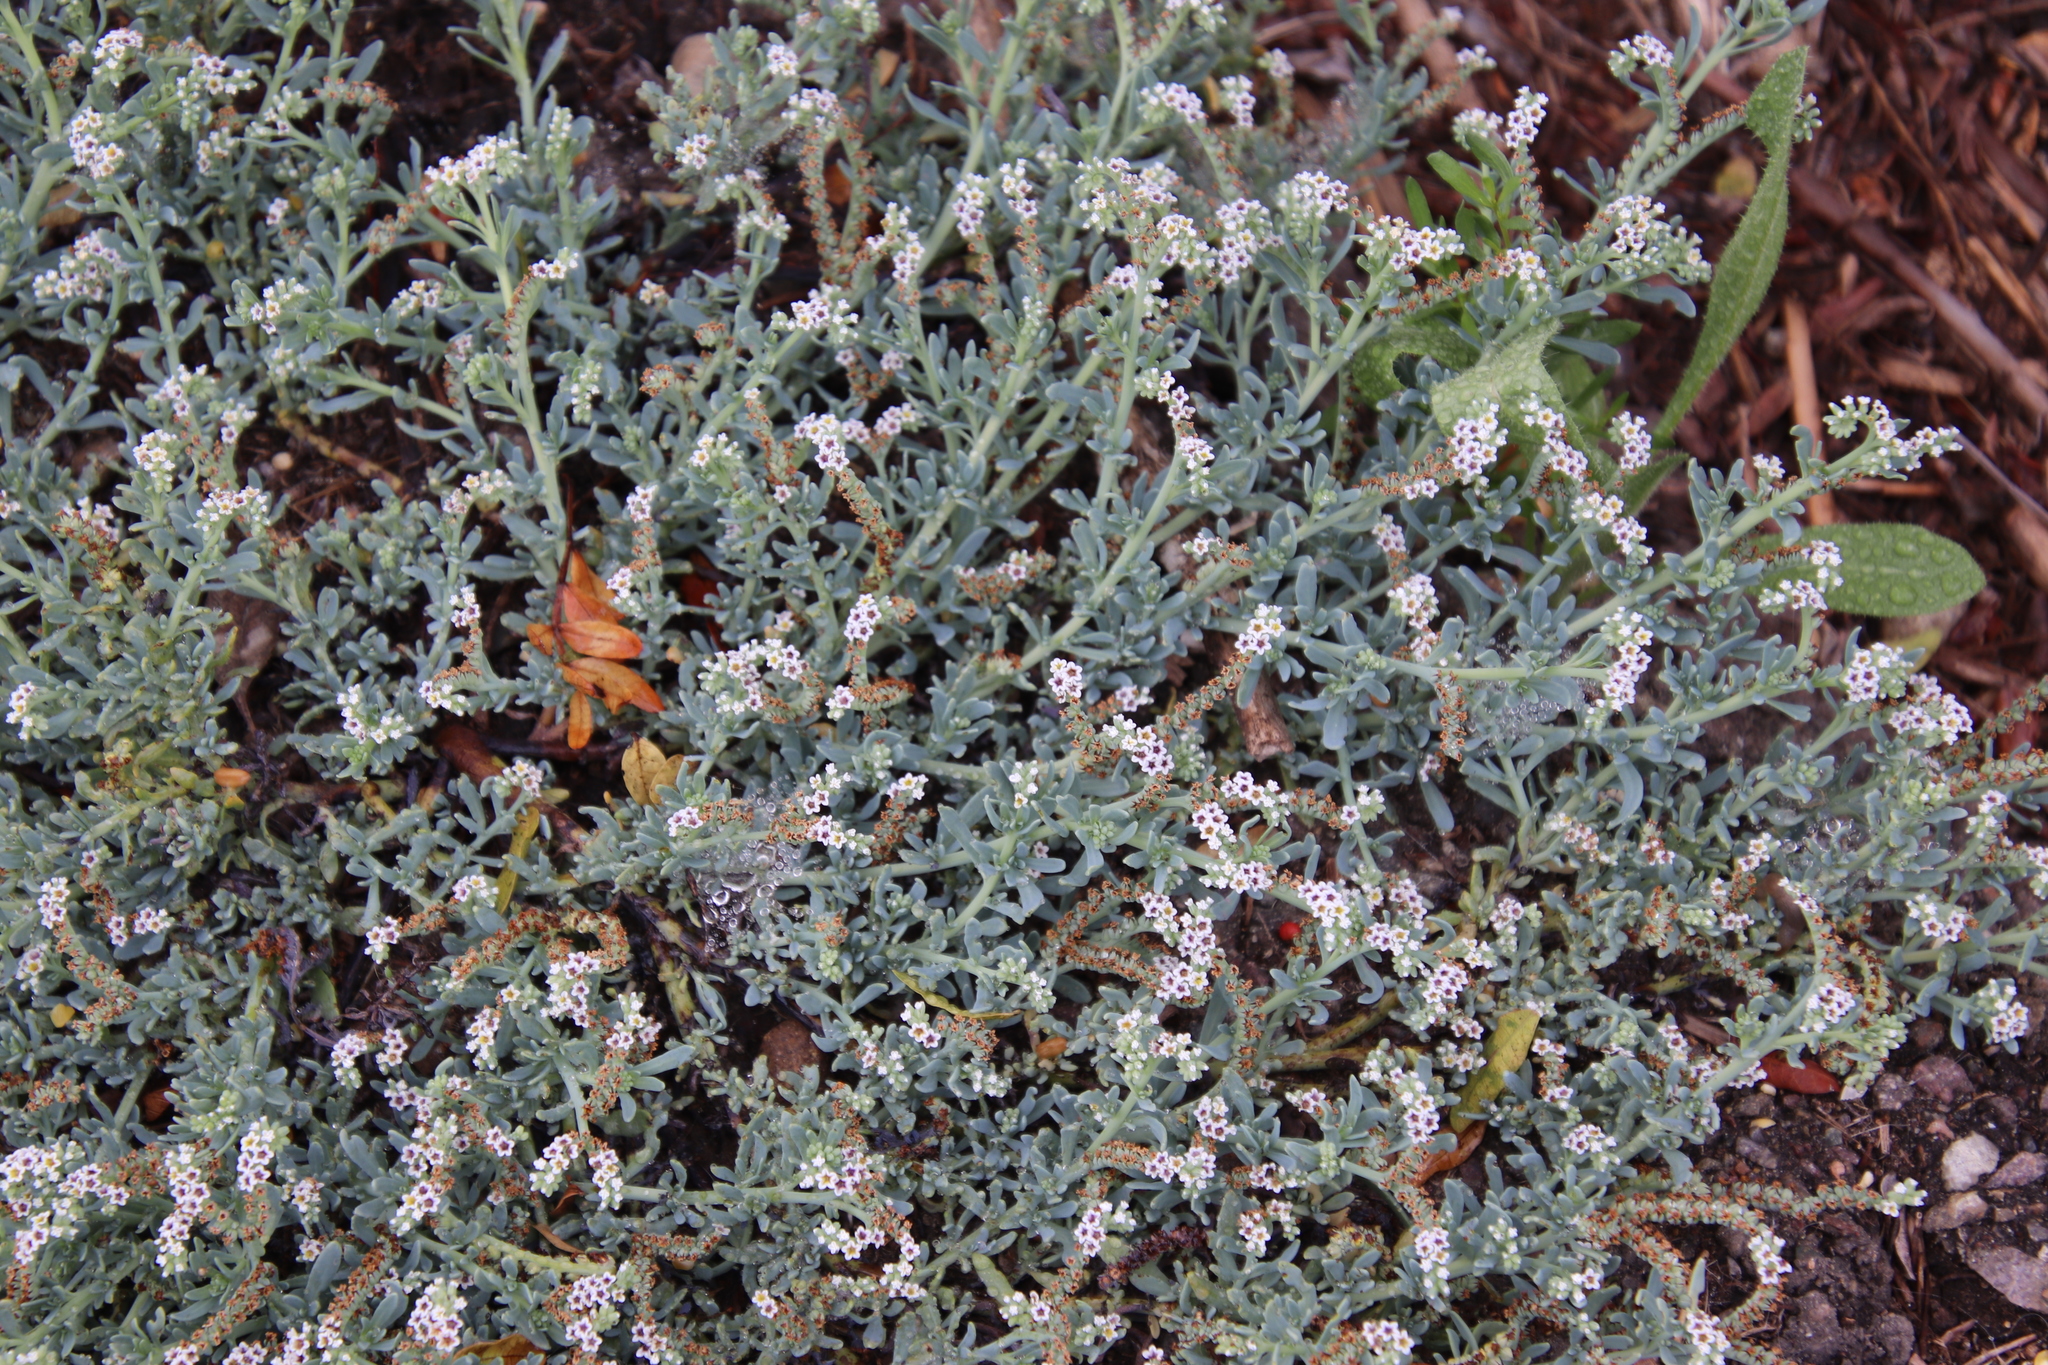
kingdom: Plantae
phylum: Tracheophyta
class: Magnoliopsida
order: Boraginales
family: Heliotropiaceae
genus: Heliotropium
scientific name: Heliotropium curassavicum
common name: Seaside heliotrope
